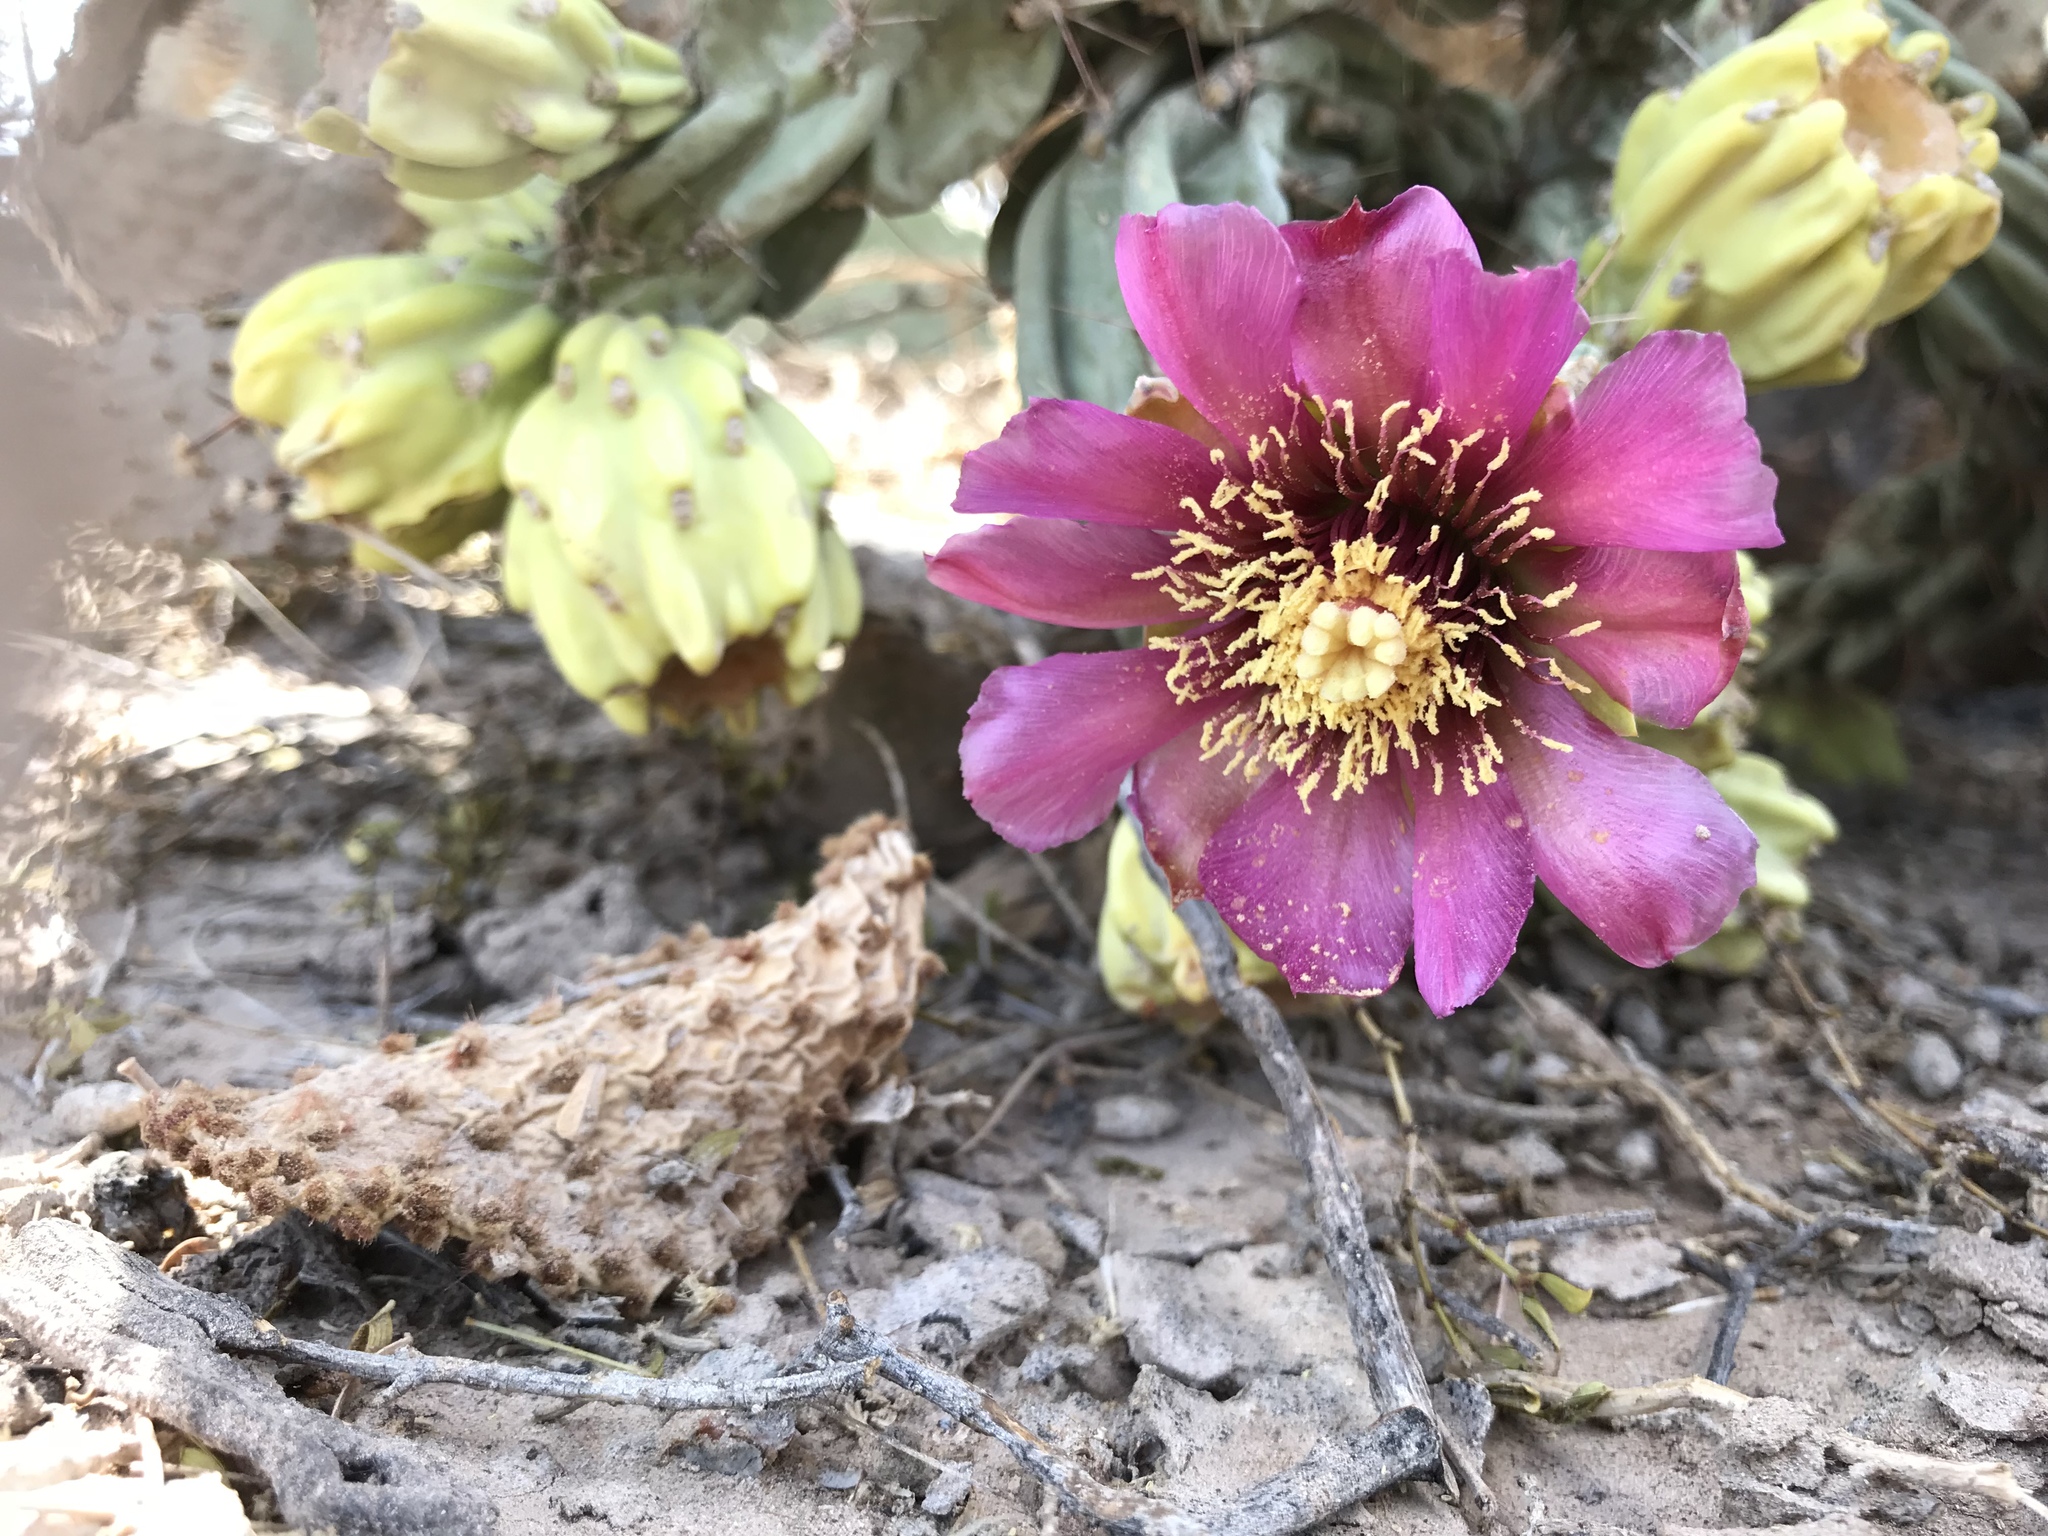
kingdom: Plantae
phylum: Tracheophyta
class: Magnoliopsida
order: Caryophyllales
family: Cactaceae
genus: Cylindropuntia
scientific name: Cylindropuntia imbricata
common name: Candelabrum cactus
